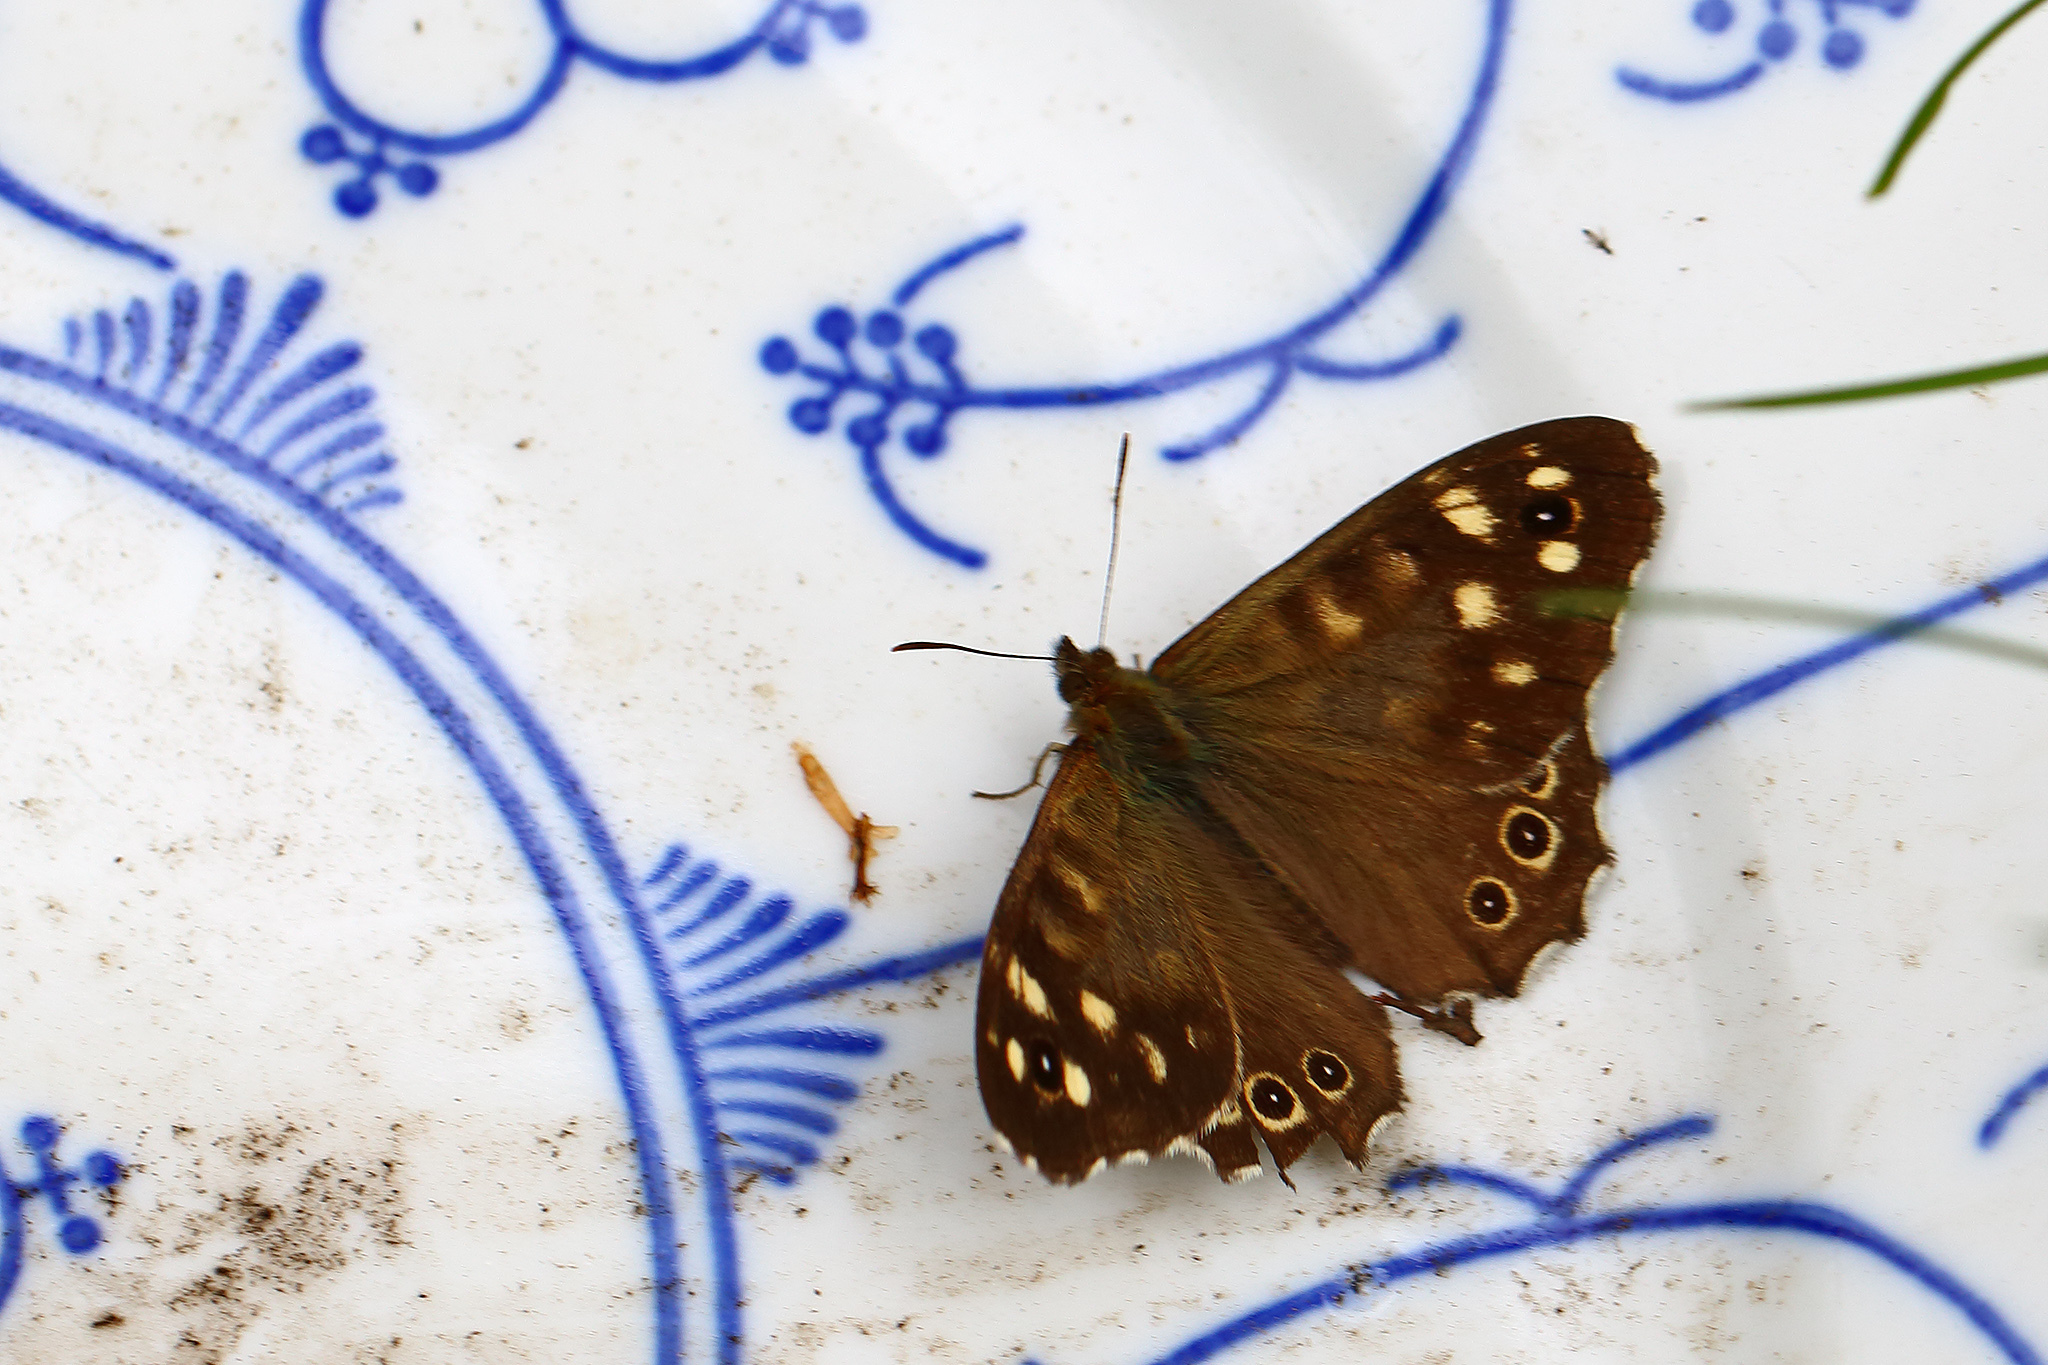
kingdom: Animalia
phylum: Arthropoda
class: Insecta
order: Lepidoptera
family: Nymphalidae
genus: Pararge
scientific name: Pararge aegeria
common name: Speckled wood
